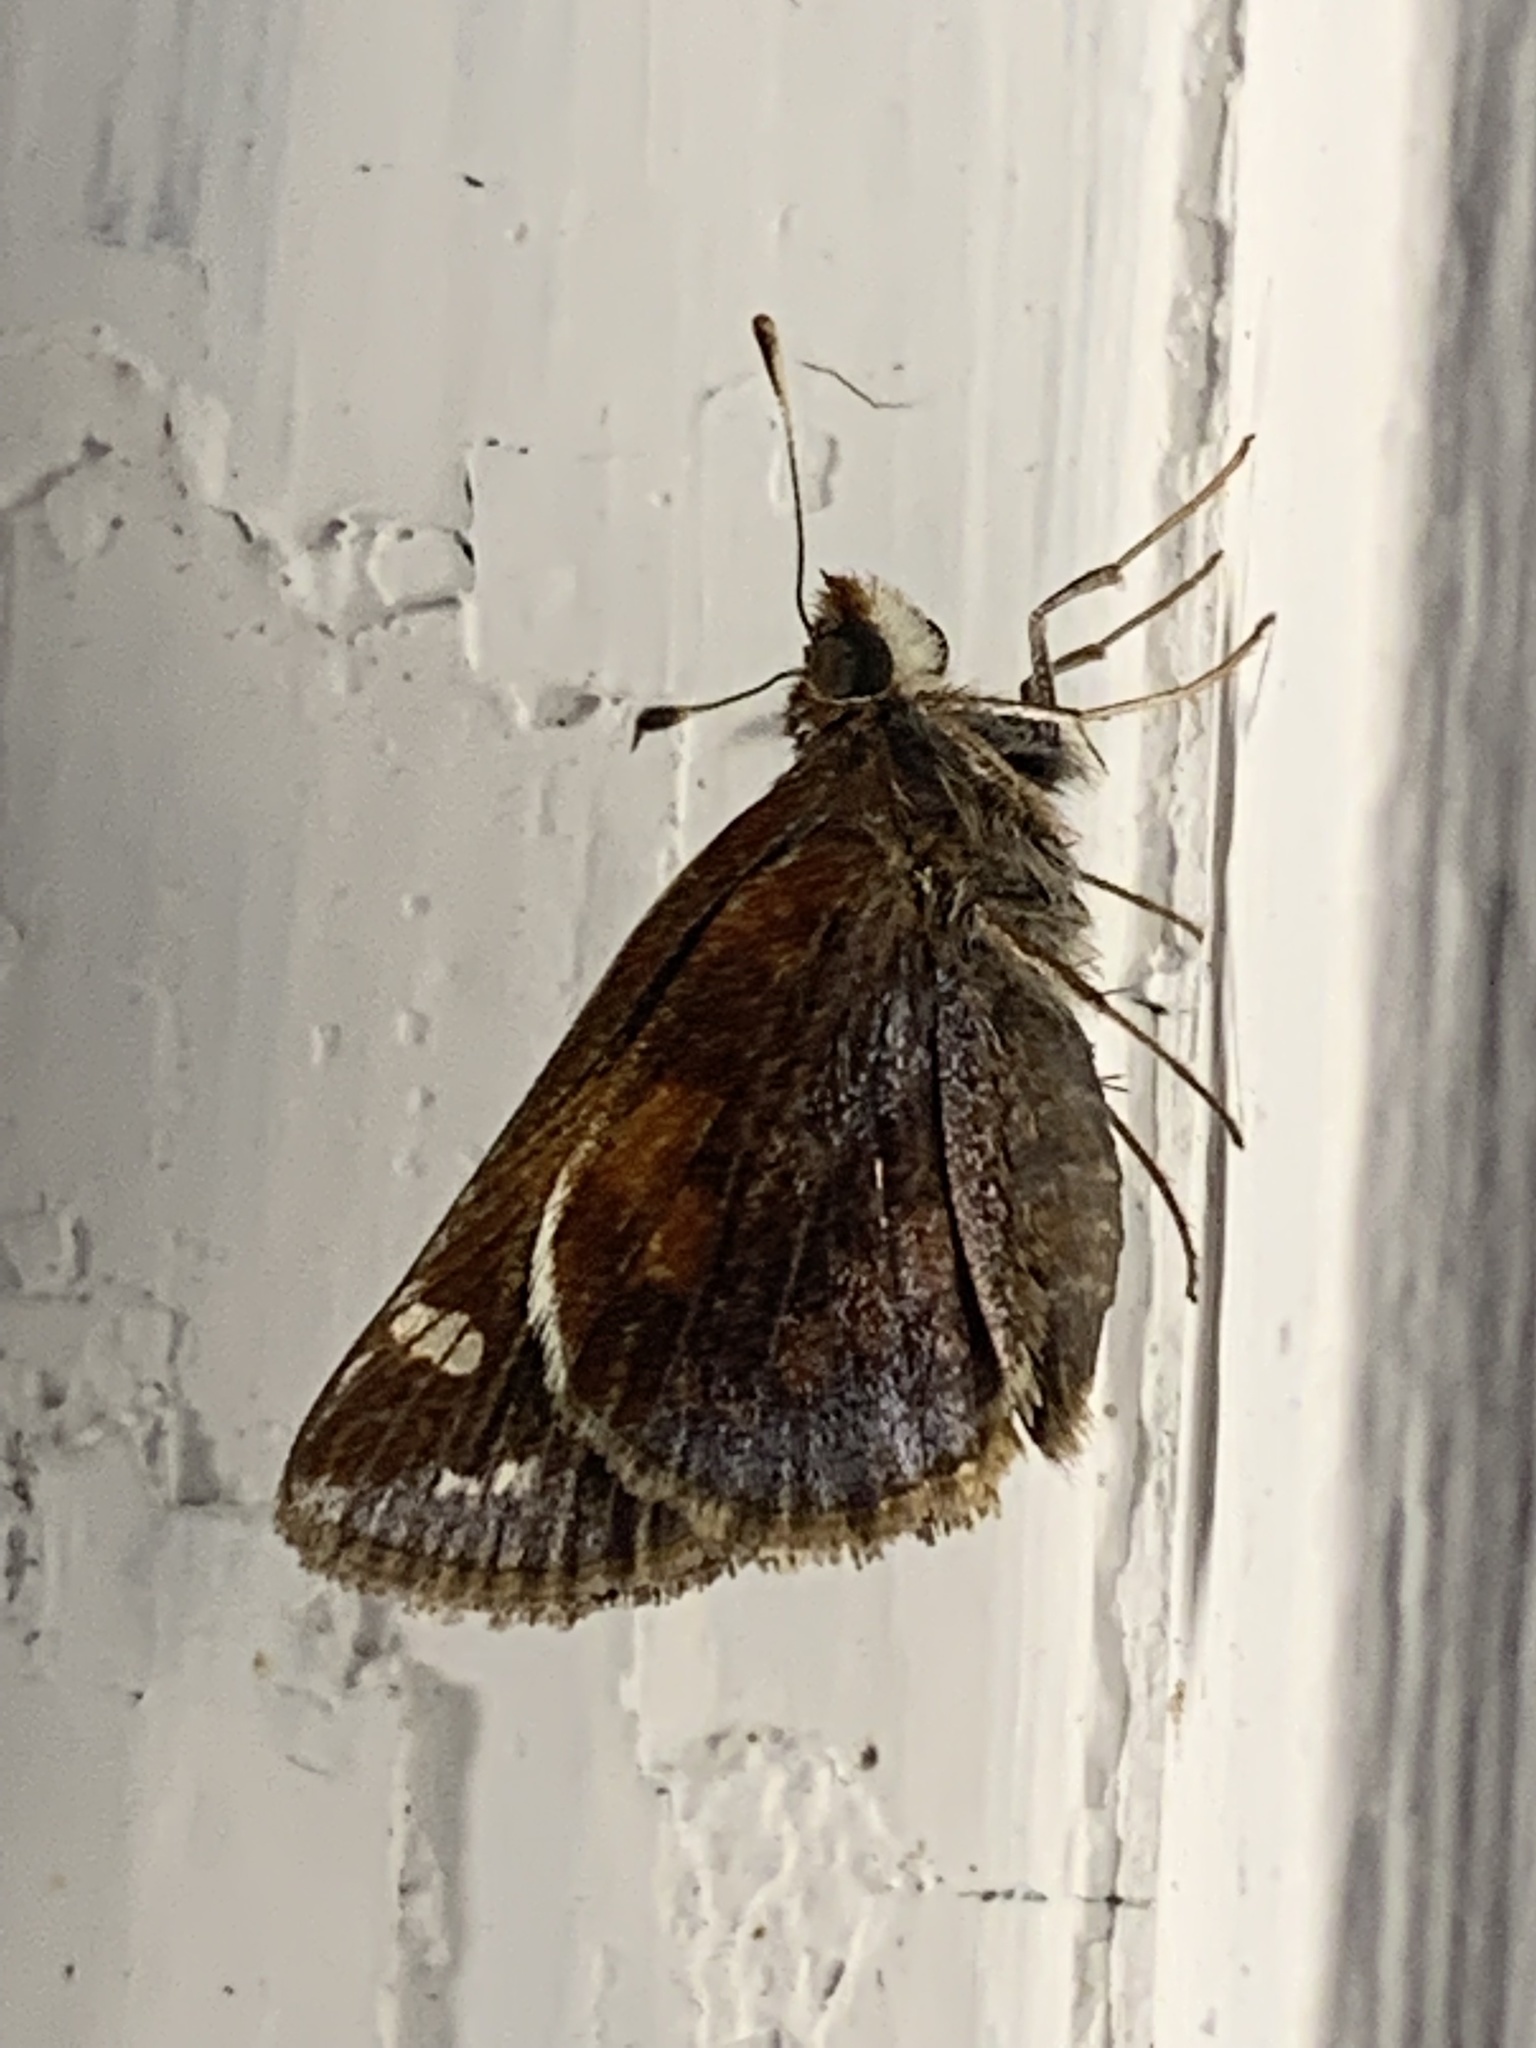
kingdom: Animalia
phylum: Arthropoda
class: Insecta
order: Lepidoptera
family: Hesperiidae
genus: Lon
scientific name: Lon zabulon
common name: Zabulon skipper
